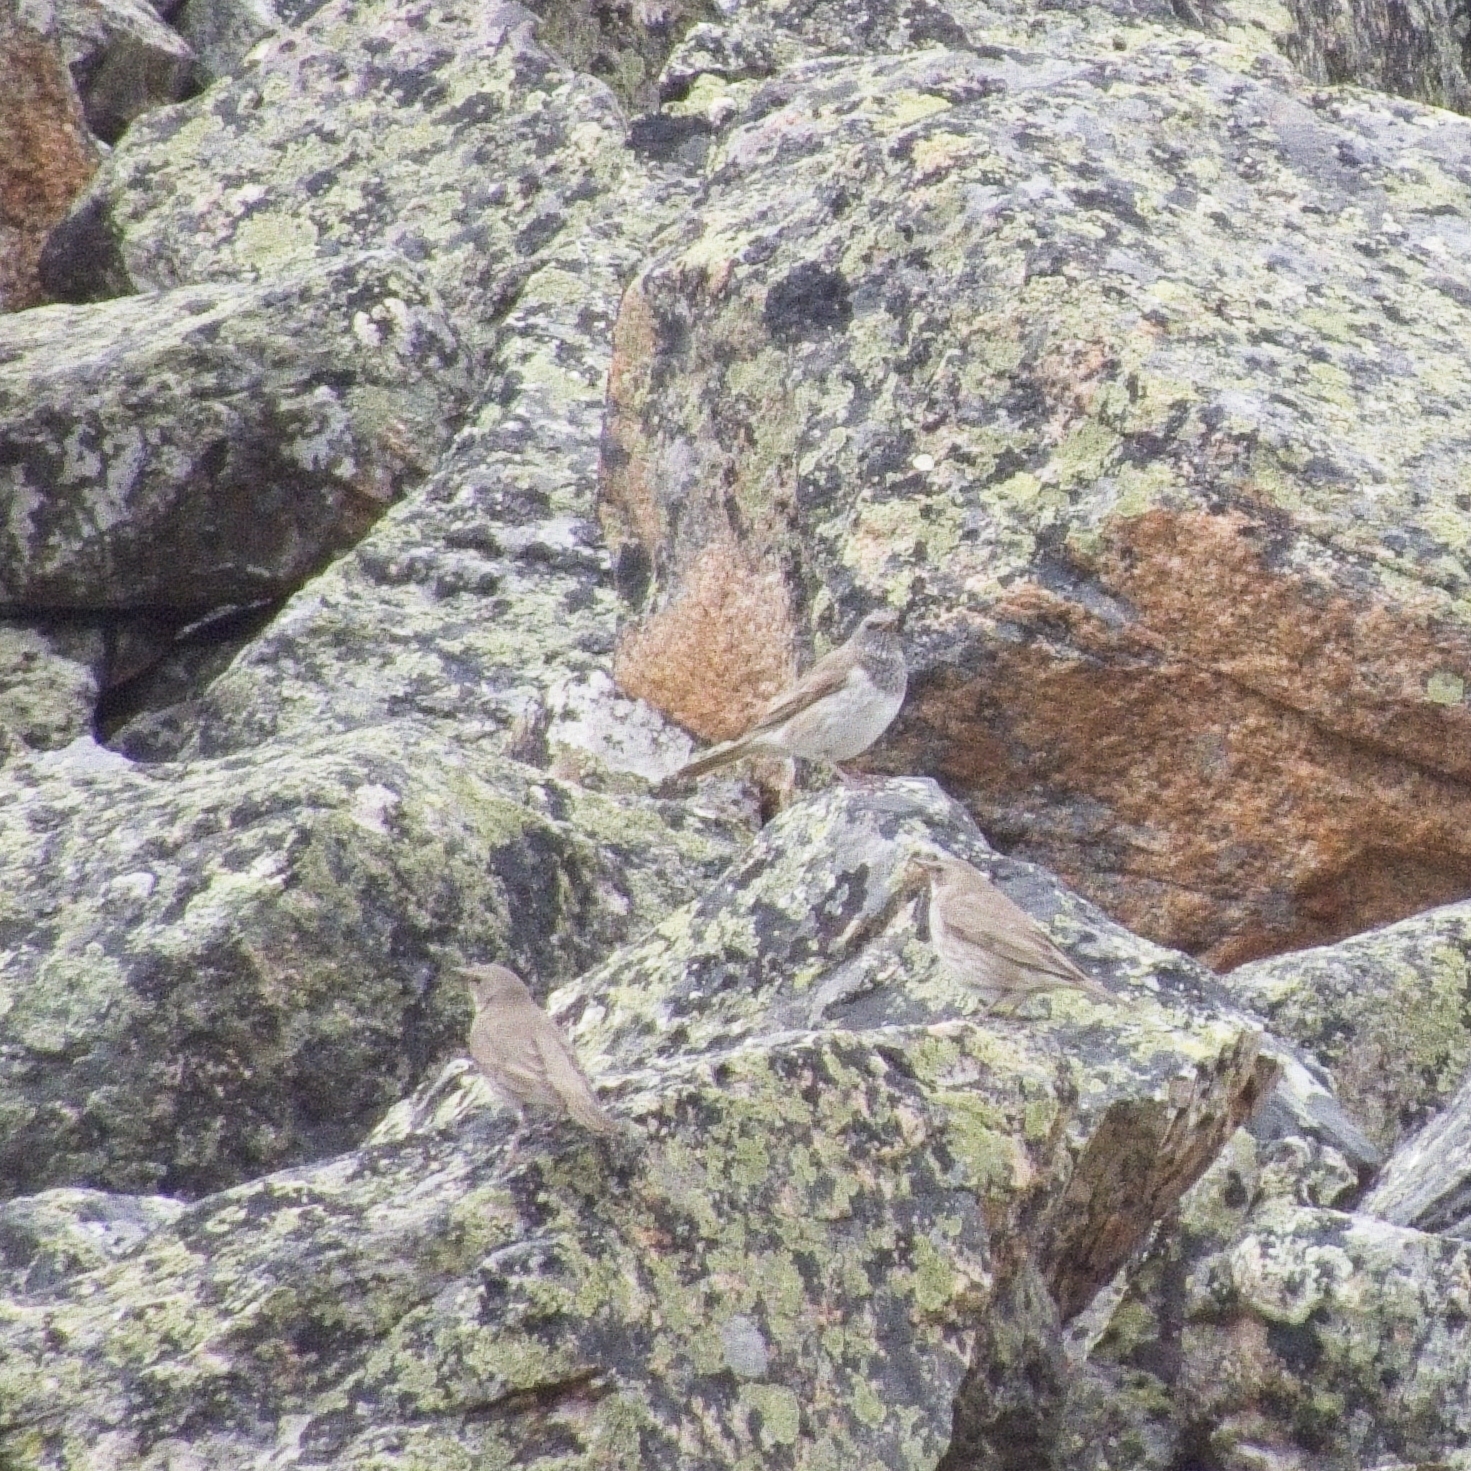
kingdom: Animalia
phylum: Chordata
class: Aves
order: Passeriformes
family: Turdidae
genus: Turdus
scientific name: Turdus atrogularis
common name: Black-throated thrush
